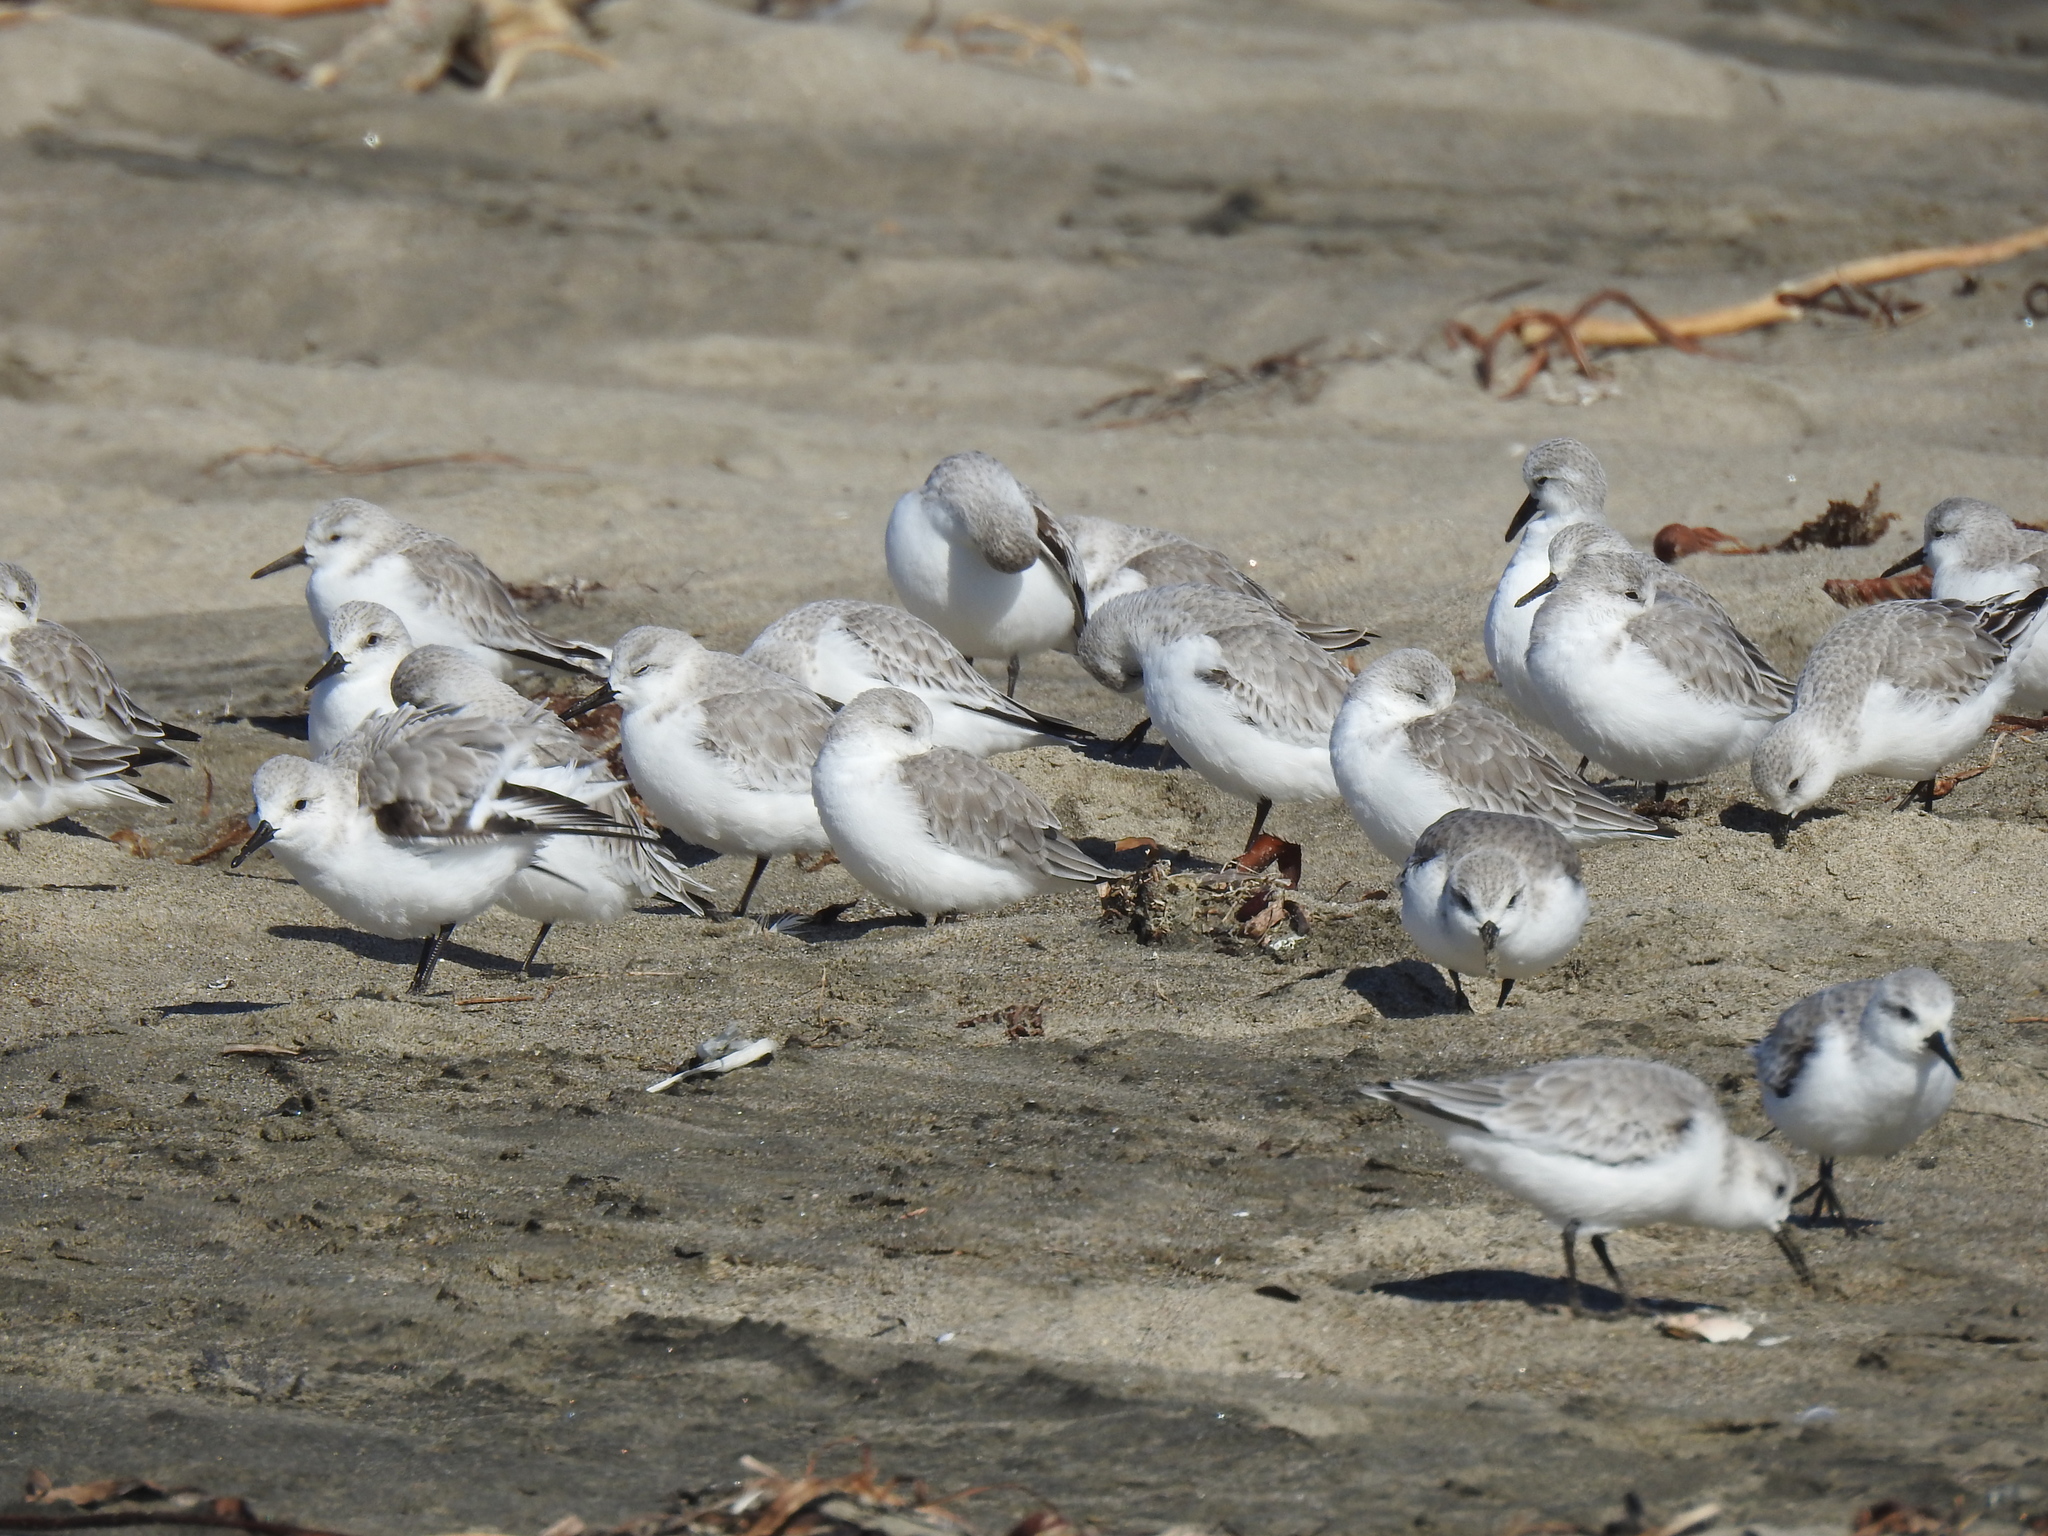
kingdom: Animalia
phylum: Chordata
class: Aves
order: Charadriiformes
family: Scolopacidae
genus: Calidris
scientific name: Calidris alba
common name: Sanderling
